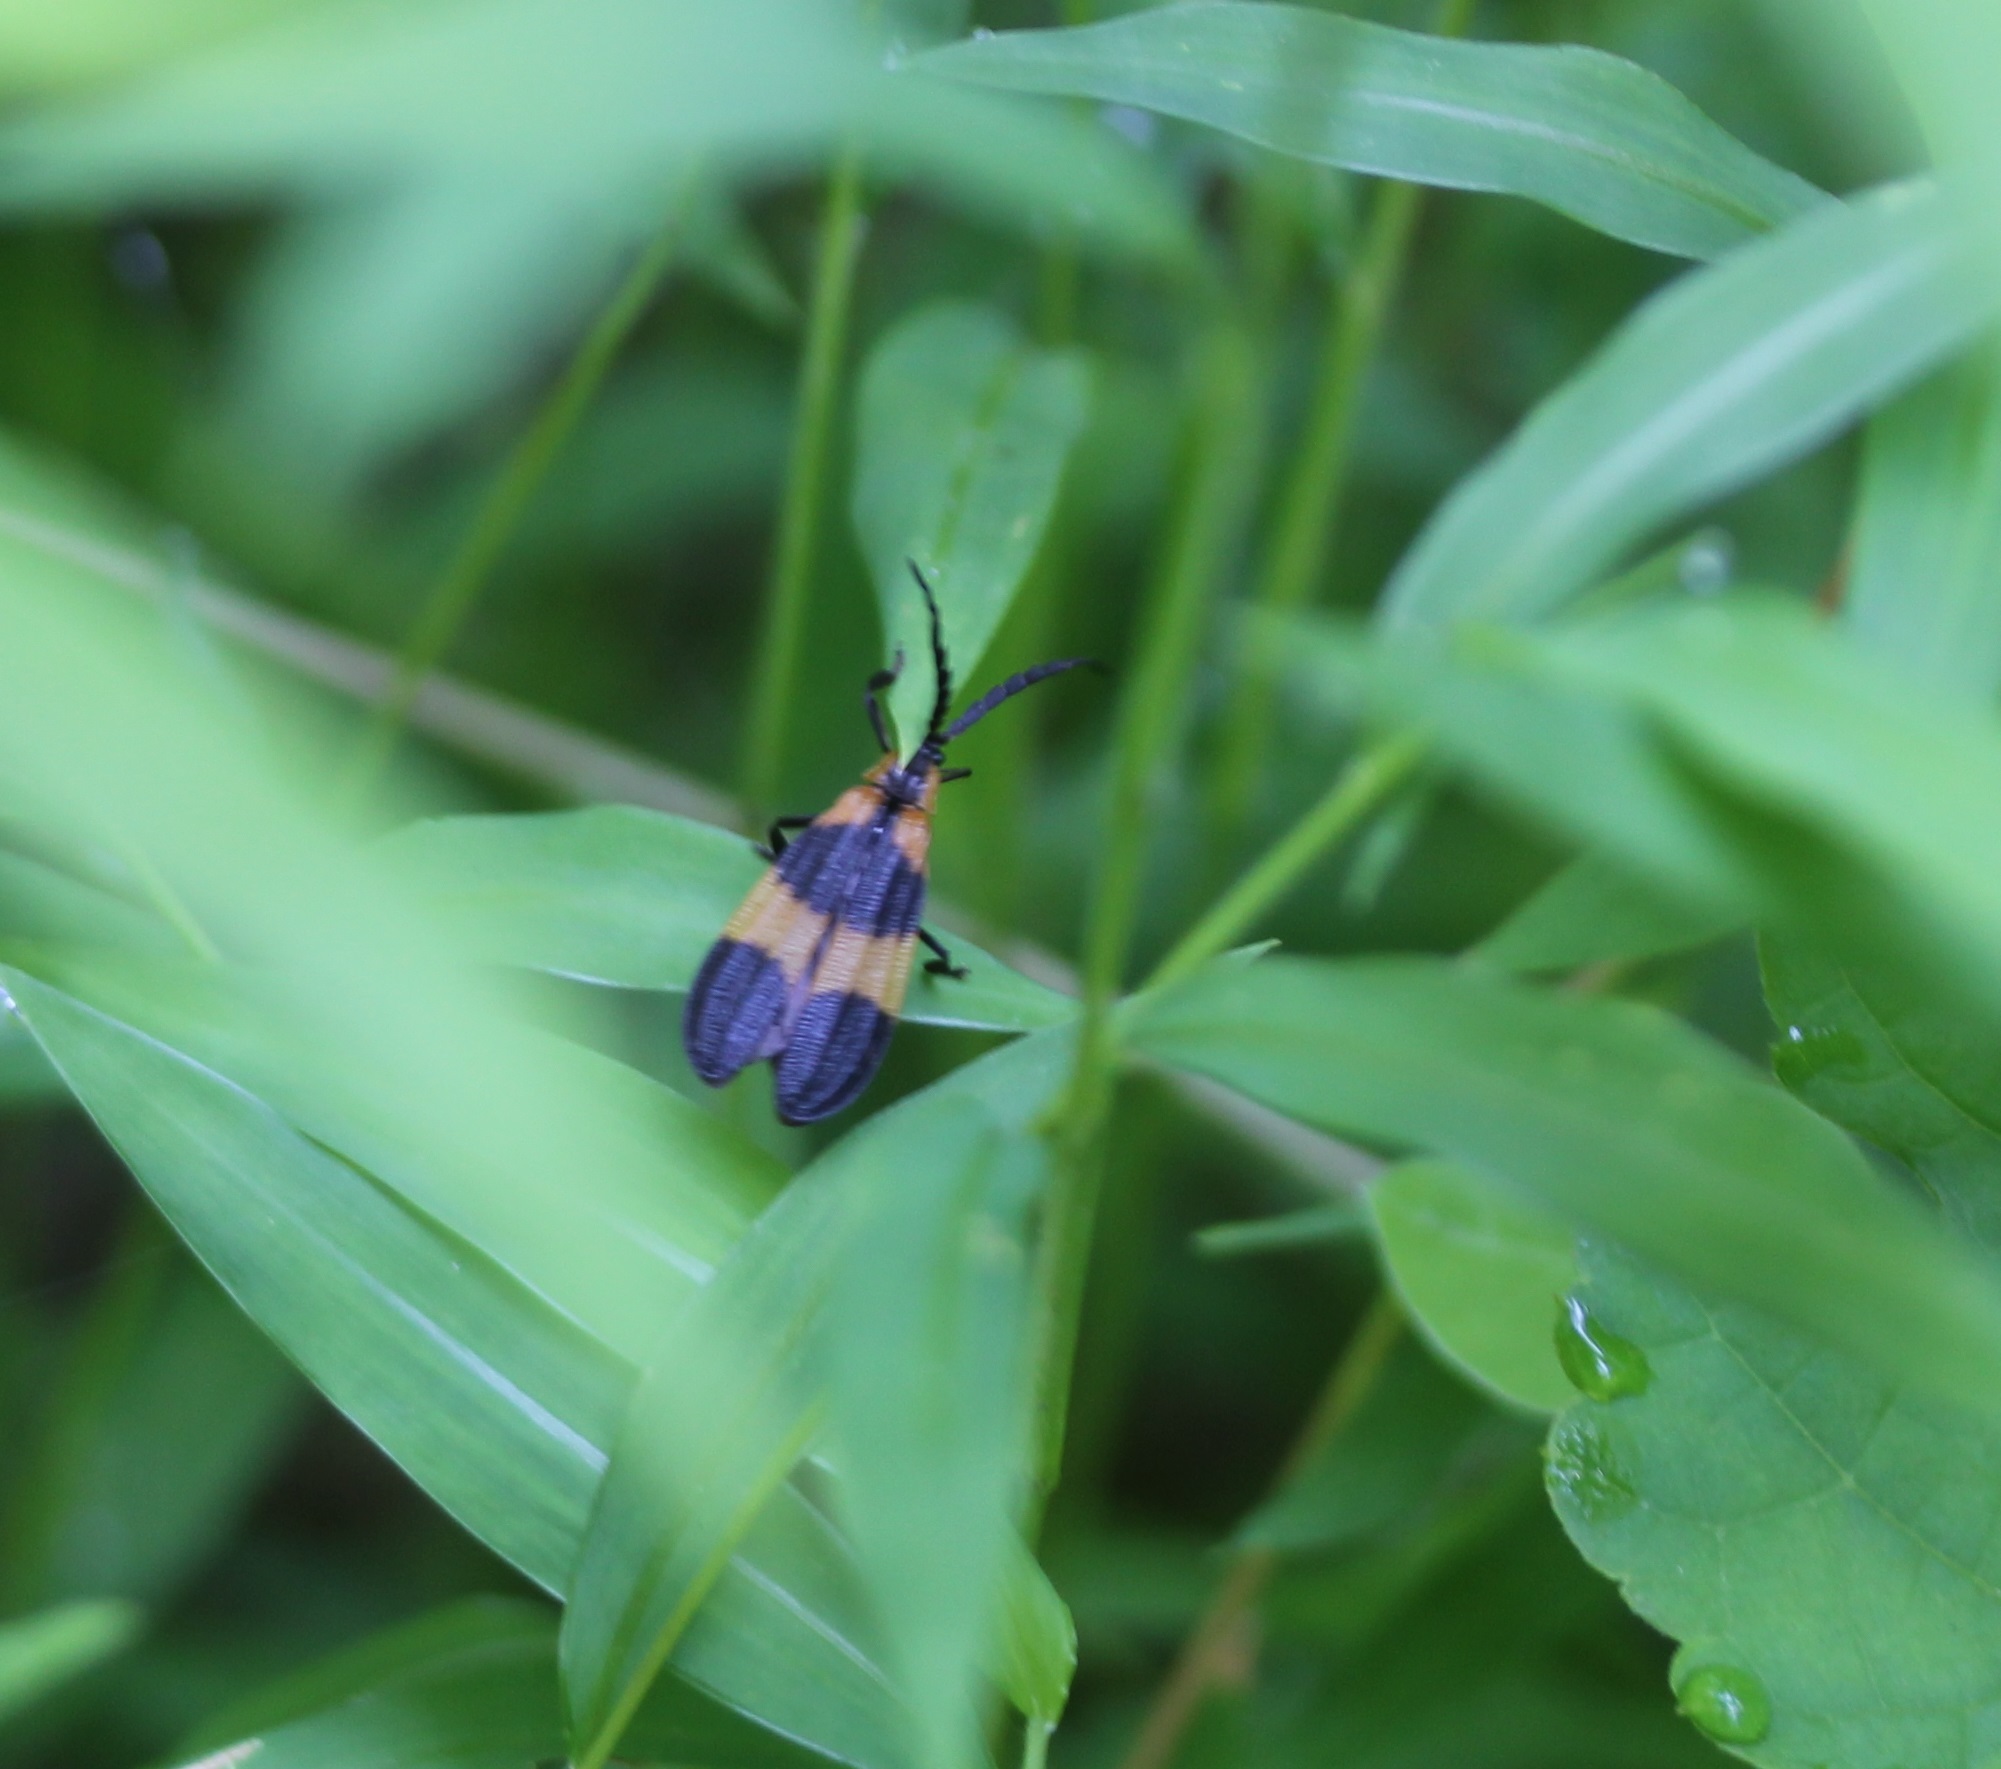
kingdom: Animalia
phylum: Arthropoda
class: Insecta
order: Coleoptera
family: Lycidae
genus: Calopteron
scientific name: Calopteron reticulatum
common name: Banded net-winged beetle
